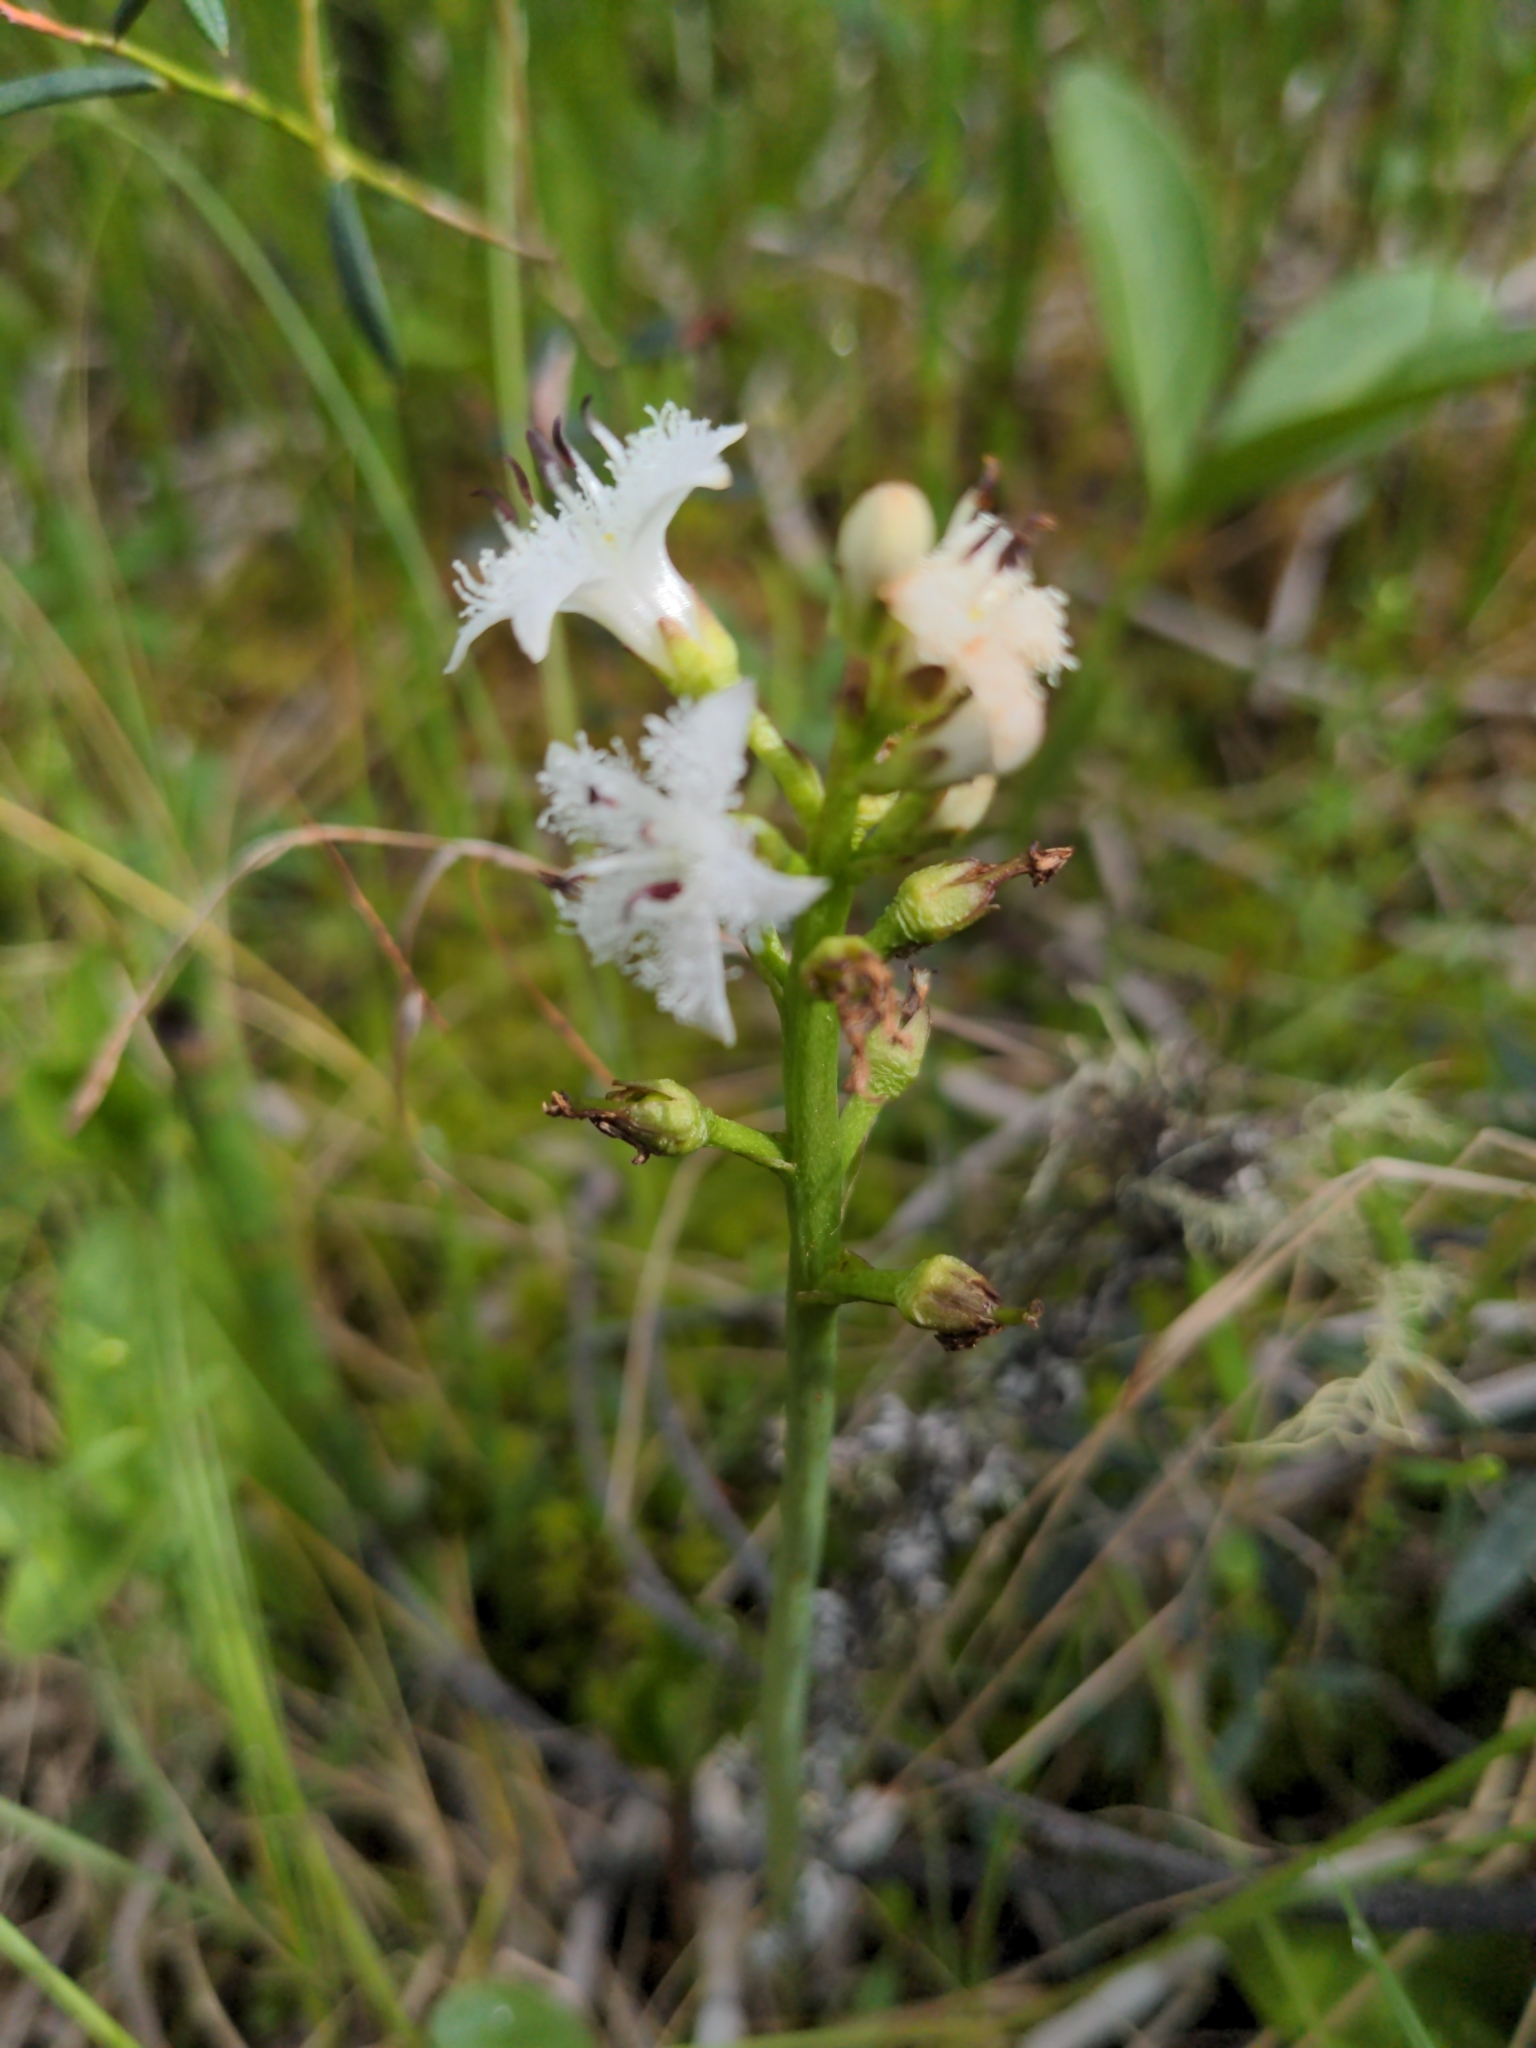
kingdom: Plantae
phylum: Tracheophyta
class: Magnoliopsida
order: Asterales
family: Menyanthaceae
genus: Menyanthes
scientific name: Menyanthes trifoliata
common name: Bogbean
